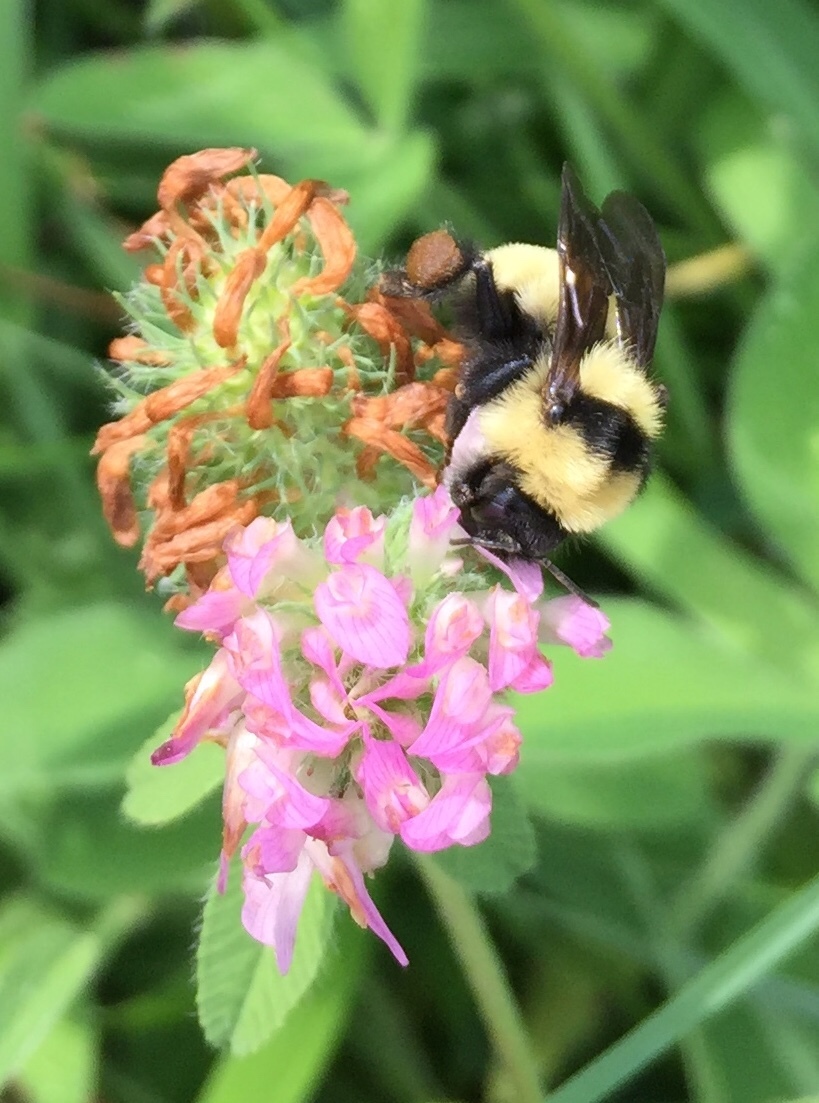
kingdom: Animalia
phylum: Arthropoda
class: Insecta
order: Hymenoptera
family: Apidae
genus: Bombus
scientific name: Bombus fervidus
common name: Yellow bumble bee
